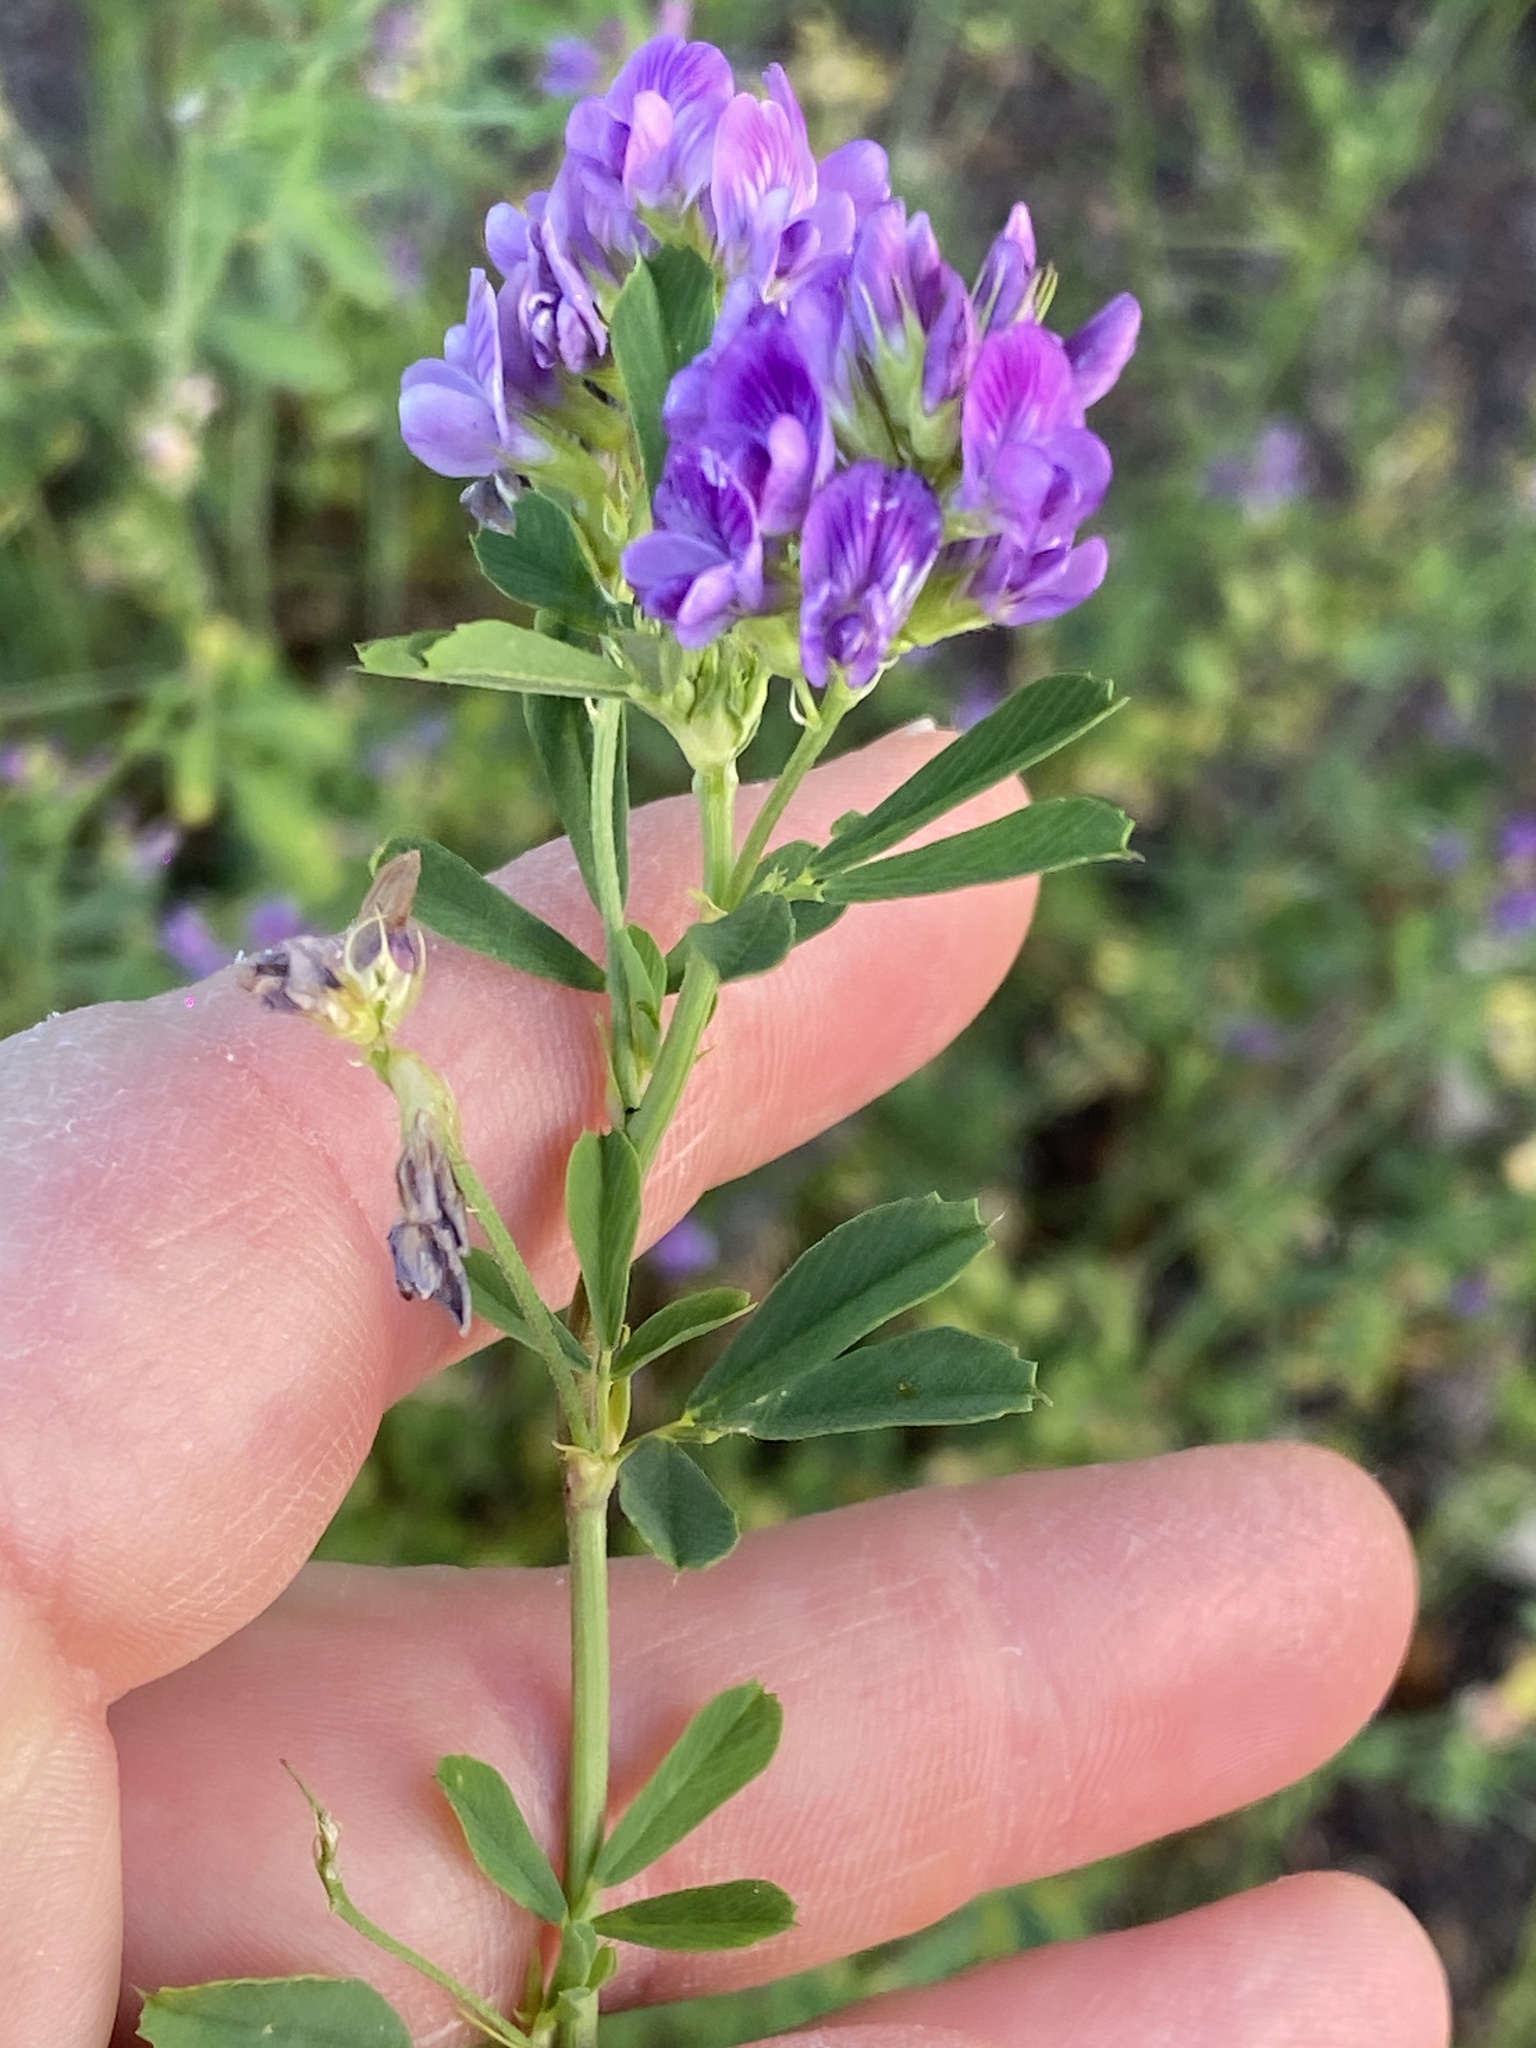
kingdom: Plantae
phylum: Tracheophyta
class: Magnoliopsida
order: Fabales
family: Fabaceae
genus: Medicago
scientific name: Medicago sativa
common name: Alfalfa
